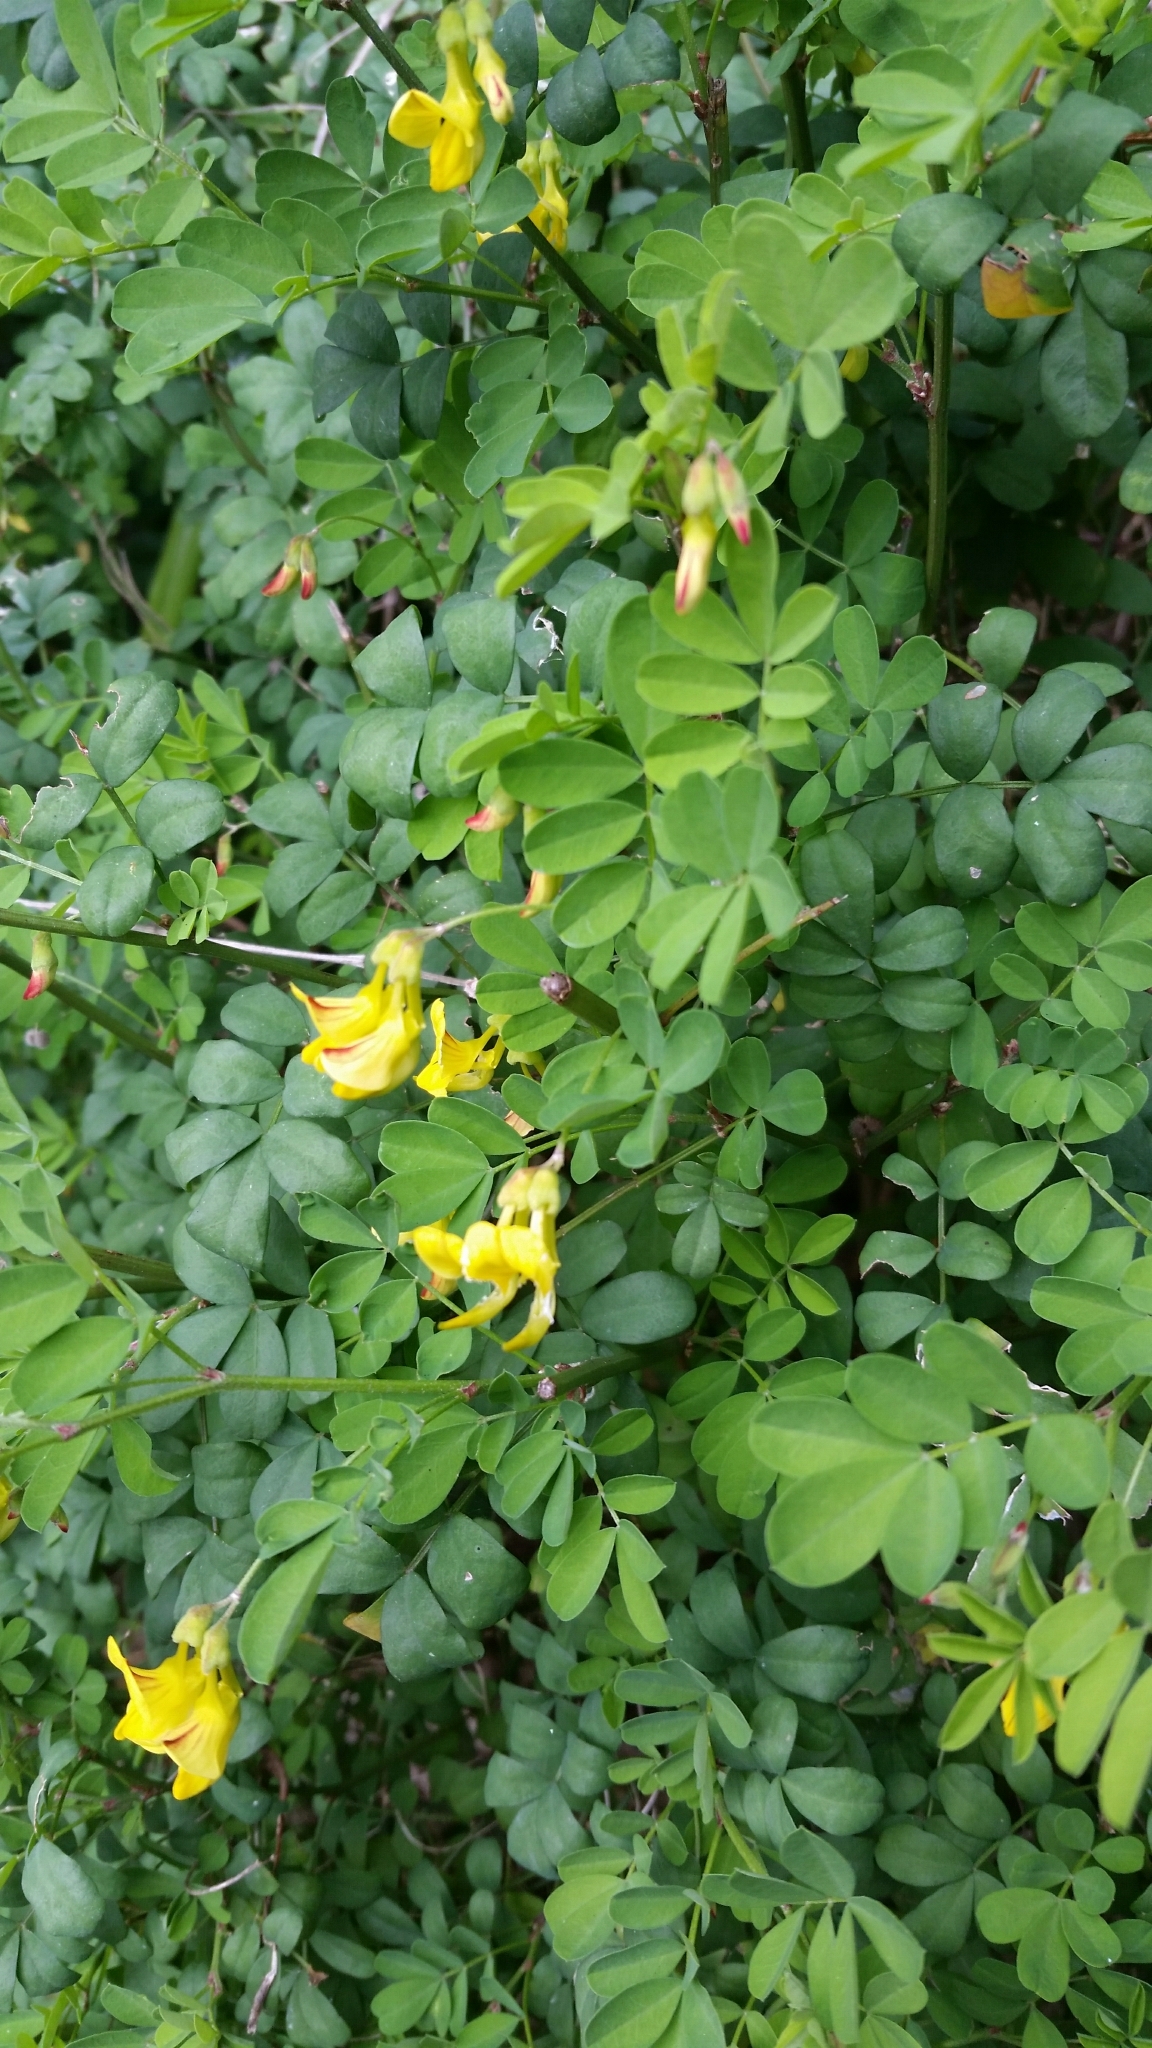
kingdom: Plantae
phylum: Tracheophyta
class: Magnoliopsida
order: Fabales
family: Fabaceae
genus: Colutea
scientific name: Colutea arborescens
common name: Bladder-senna
